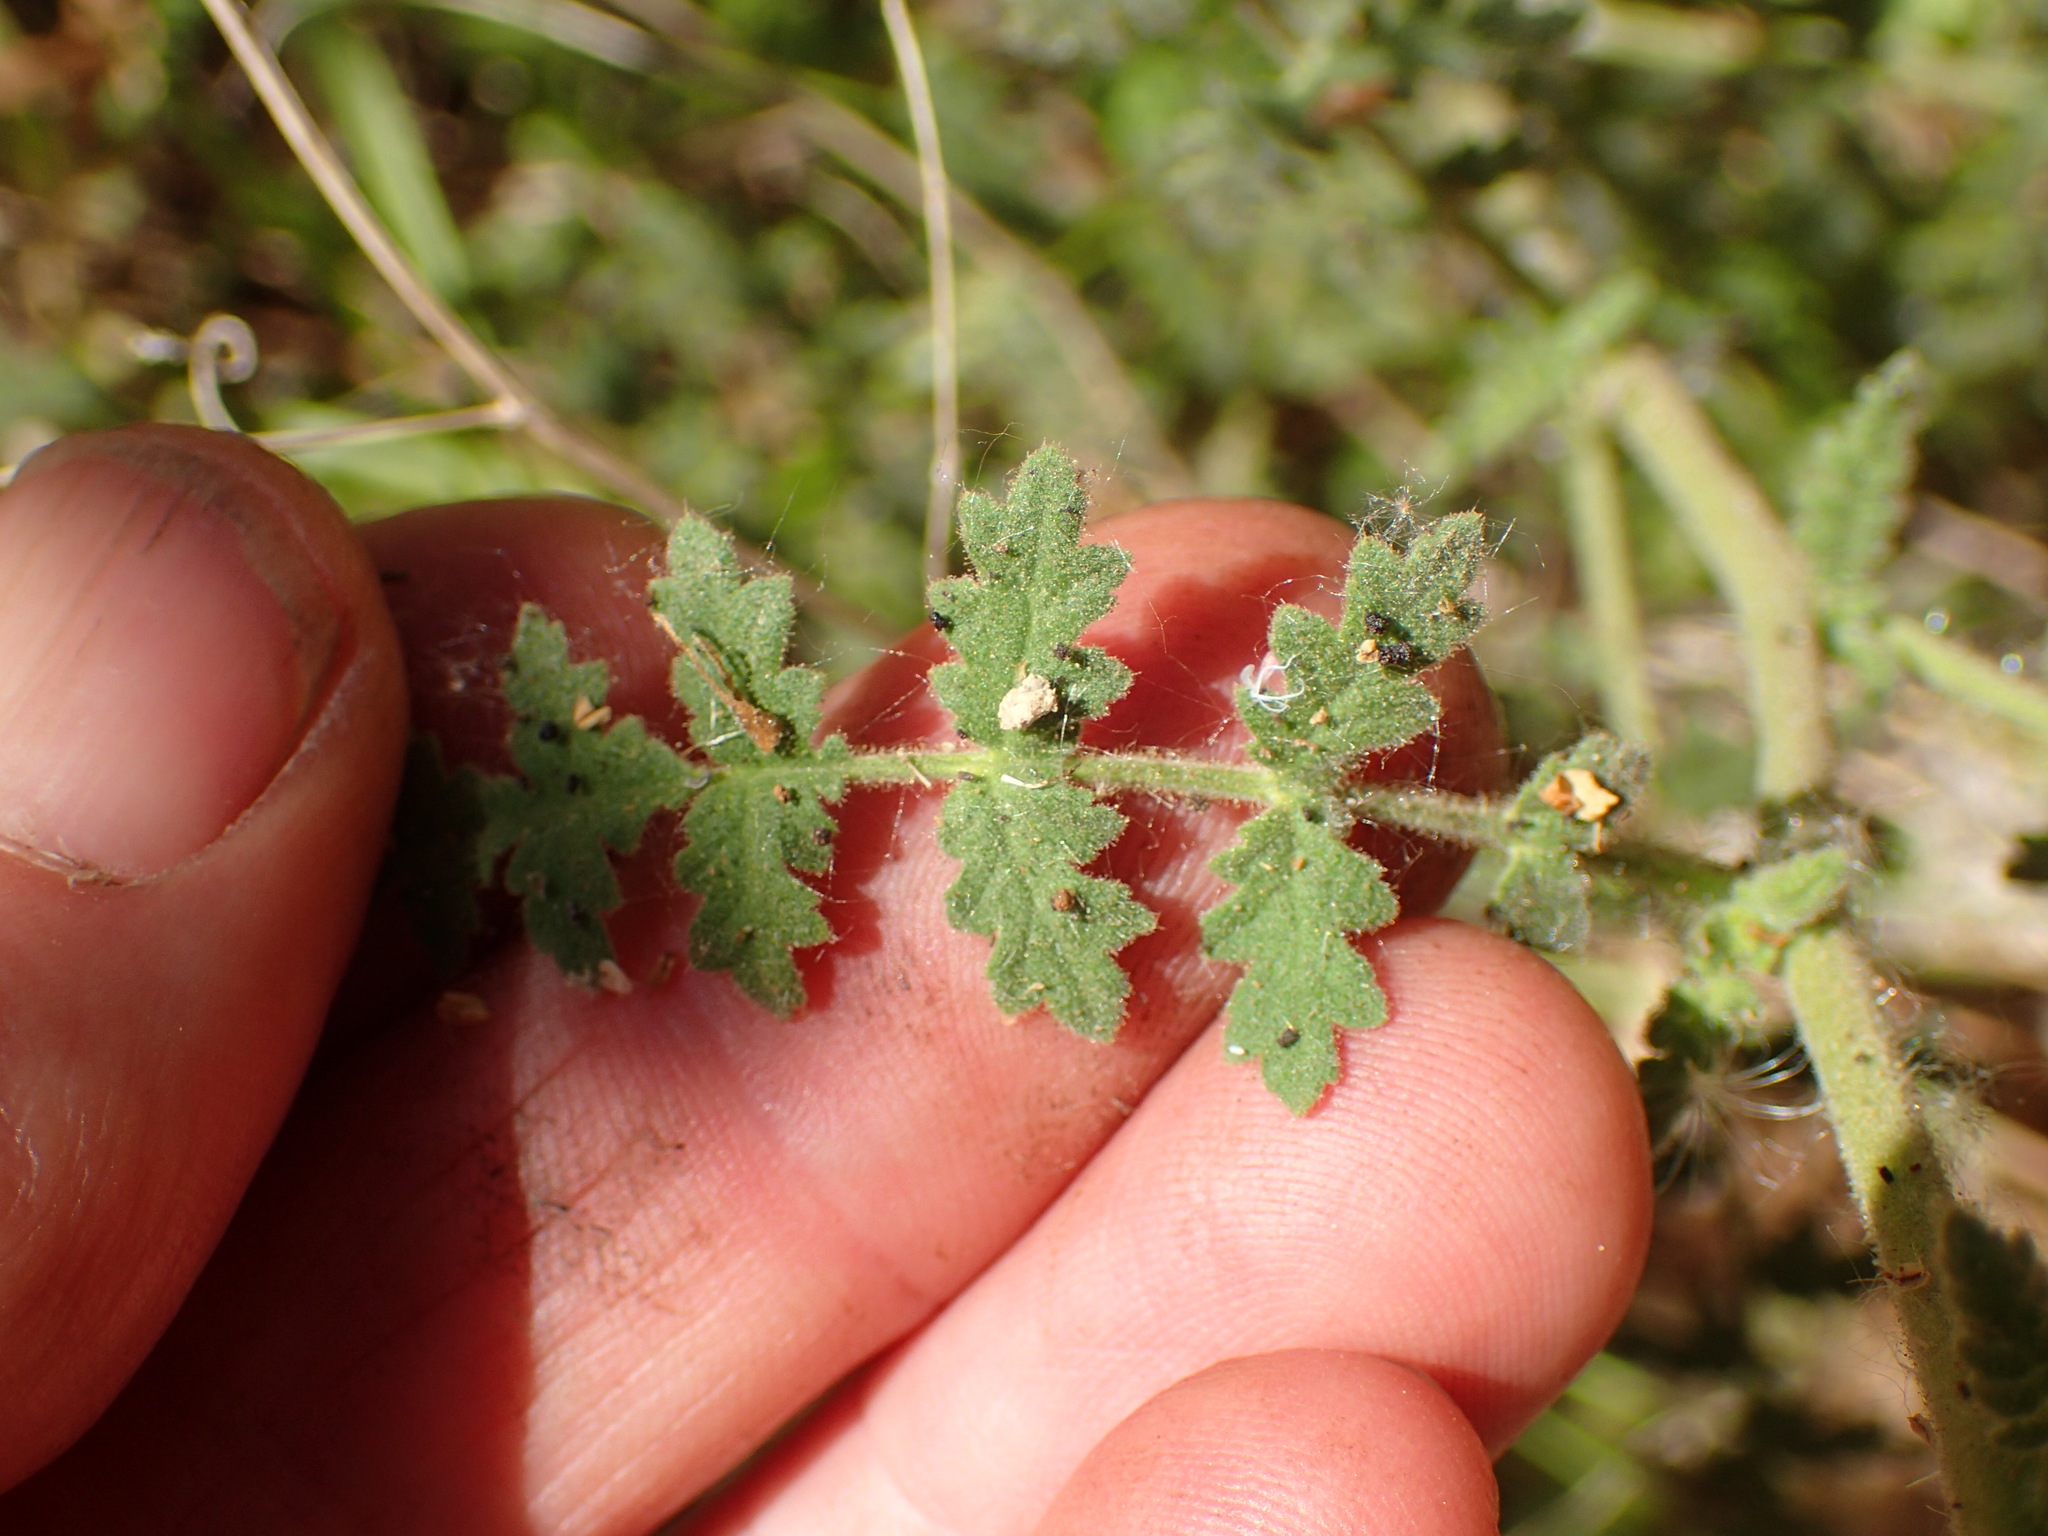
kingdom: Plantae
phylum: Tracheophyta
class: Magnoliopsida
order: Boraginales
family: Hydrophyllaceae
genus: Phacelia
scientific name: Phacelia ramosissima
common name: Branching phacelia
